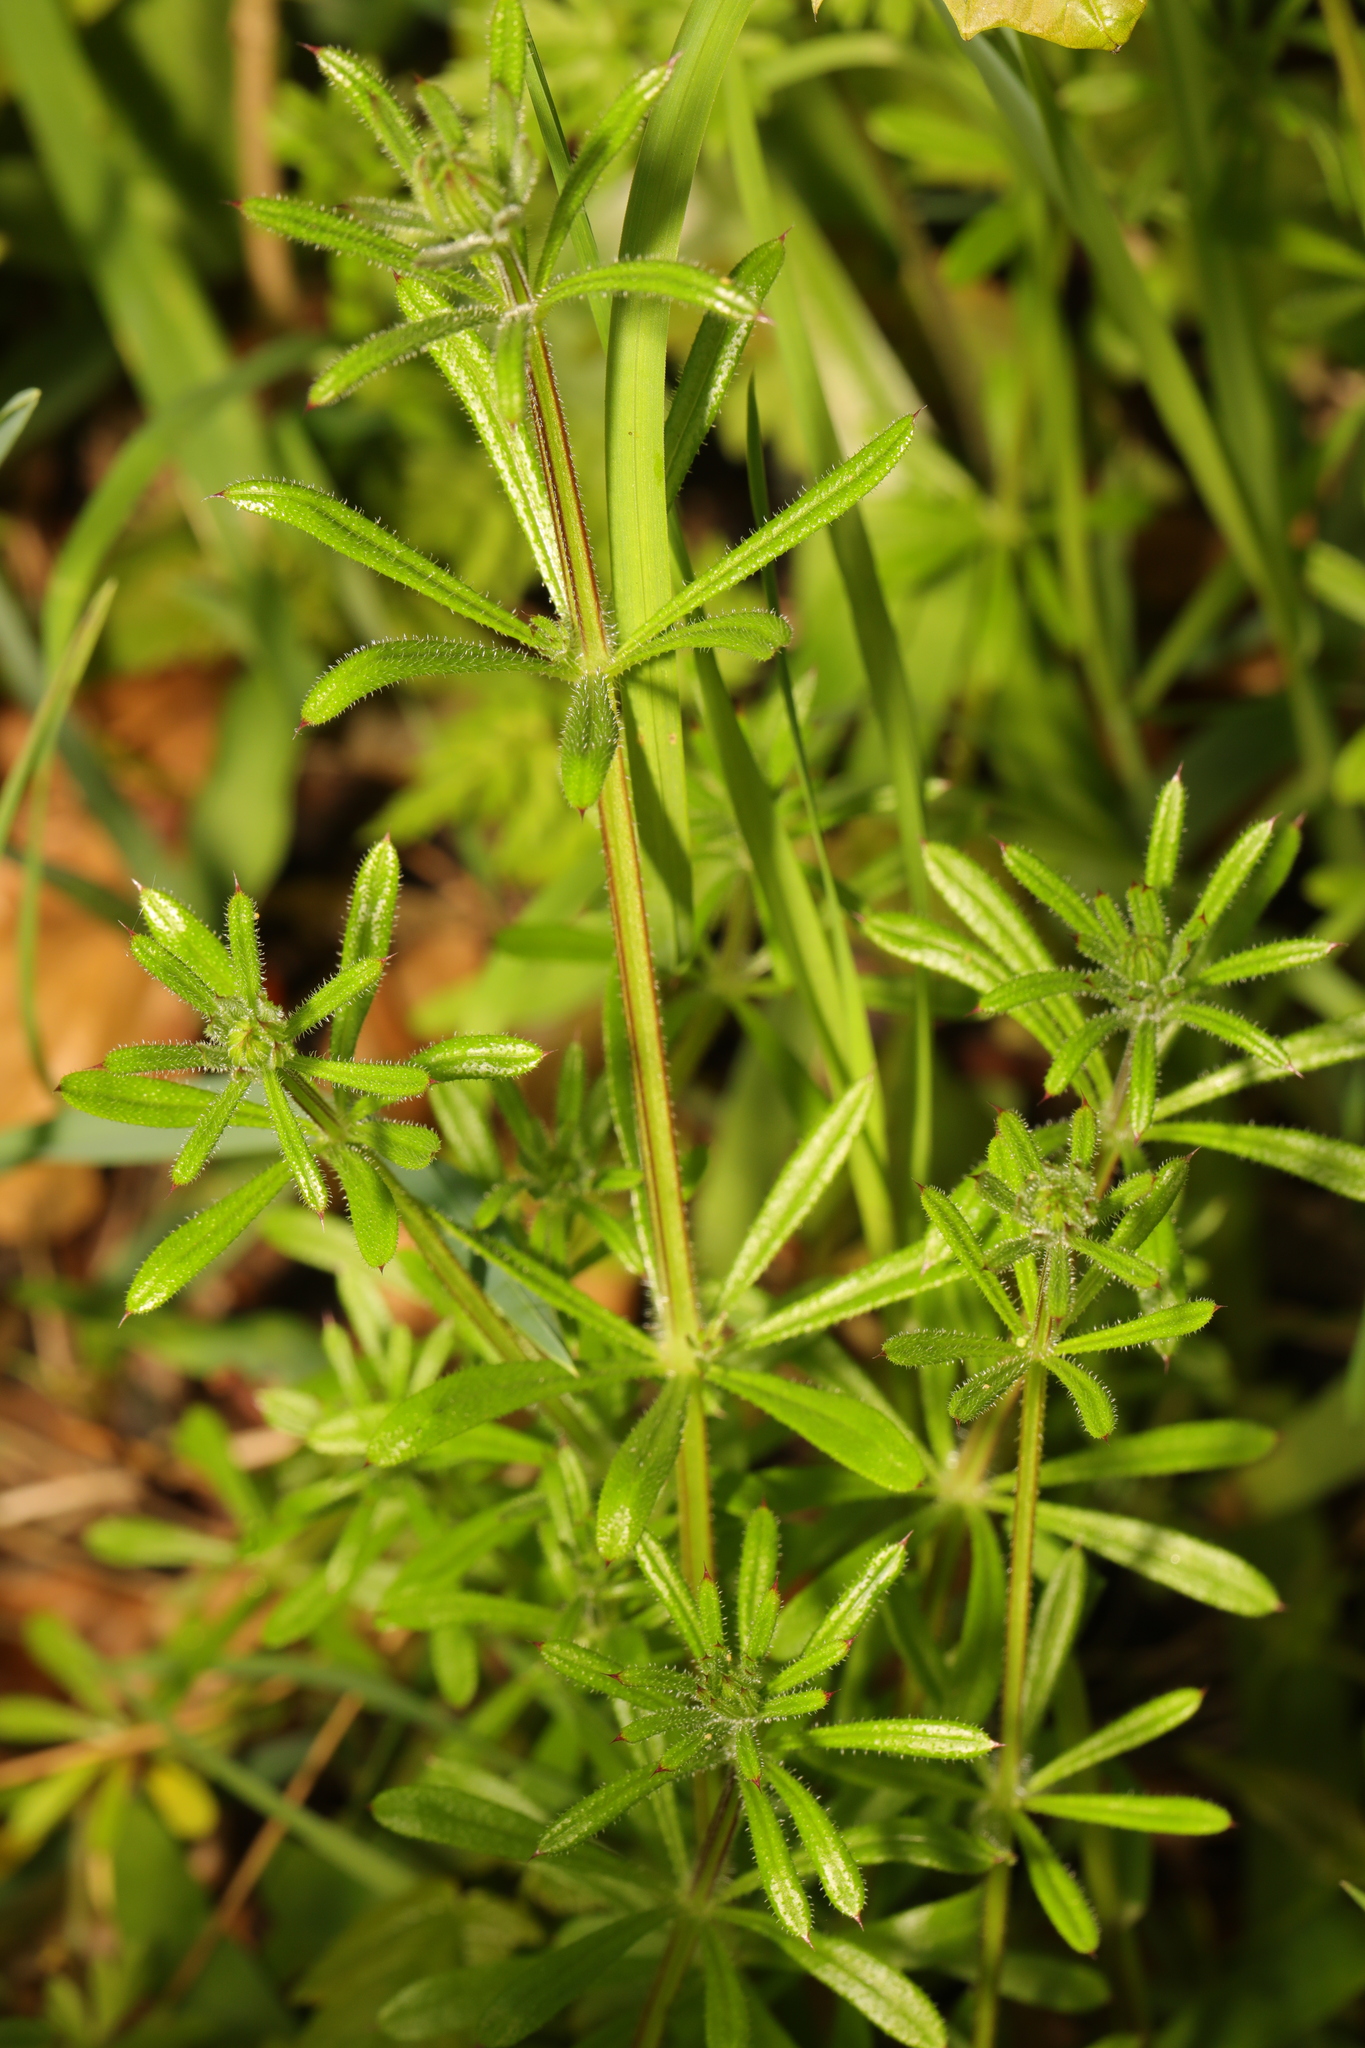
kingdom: Plantae
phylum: Tracheophyta
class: Magnoliopsida
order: Gentianales
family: Rubiaceae
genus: Galium
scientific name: Galium aparine
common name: Cleavers
